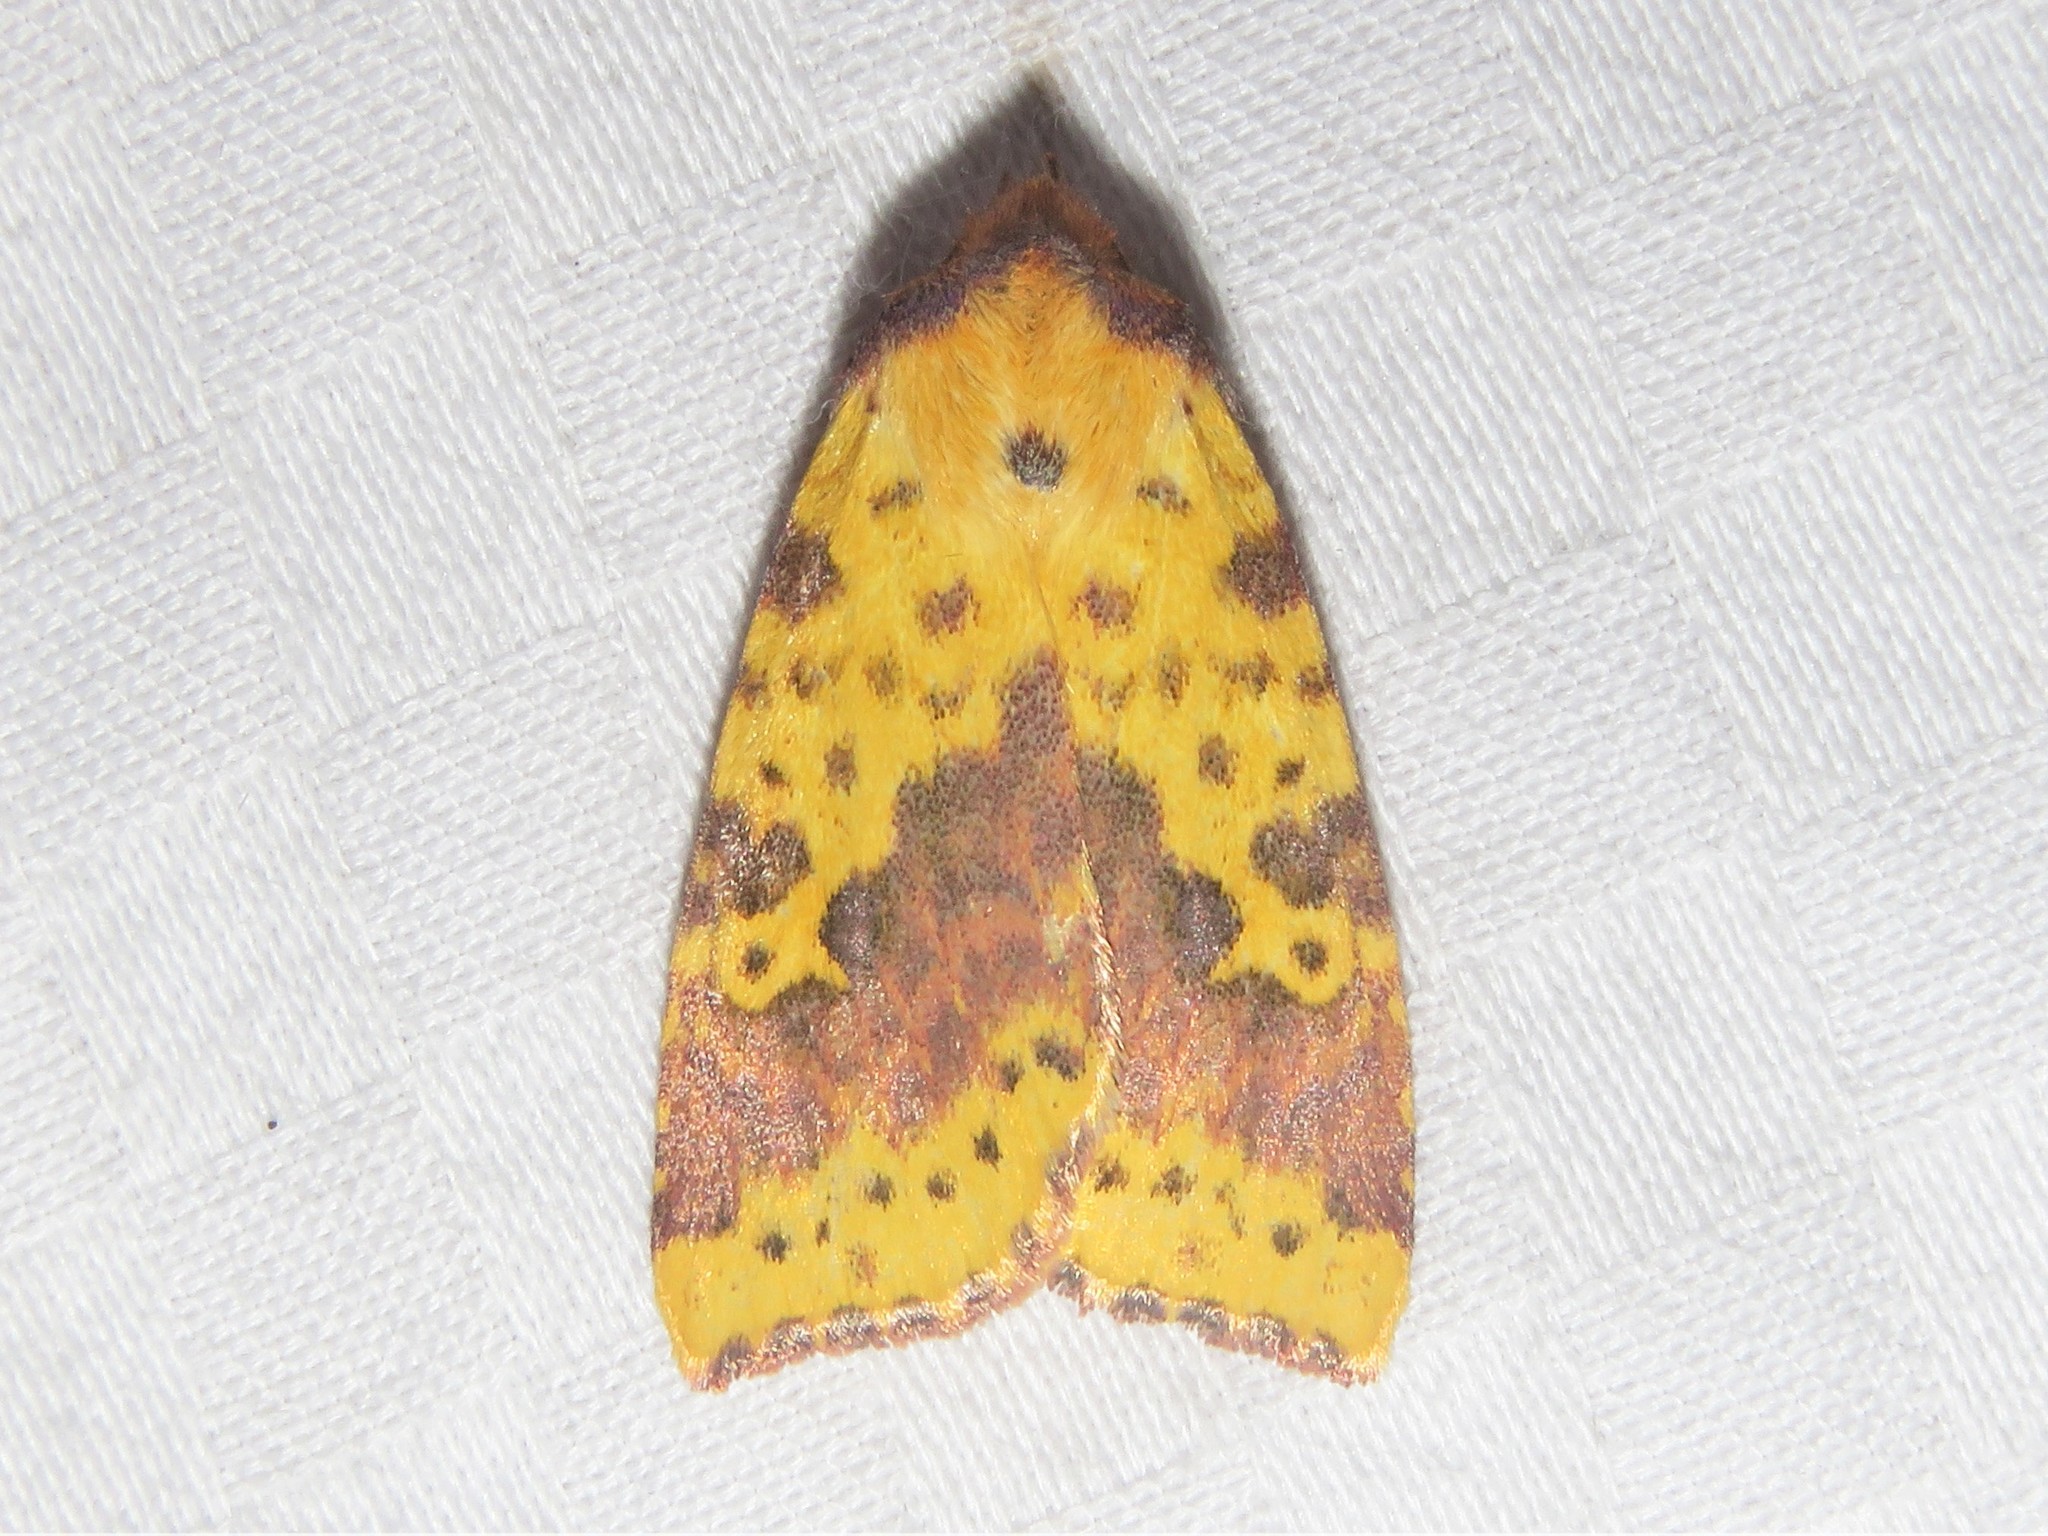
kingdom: Animalia
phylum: Arthropoda
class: Insecta
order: Lepidoptera
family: Noctuidae
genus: Xanthia
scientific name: Xanthia tatago
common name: Pink-banded sallow
